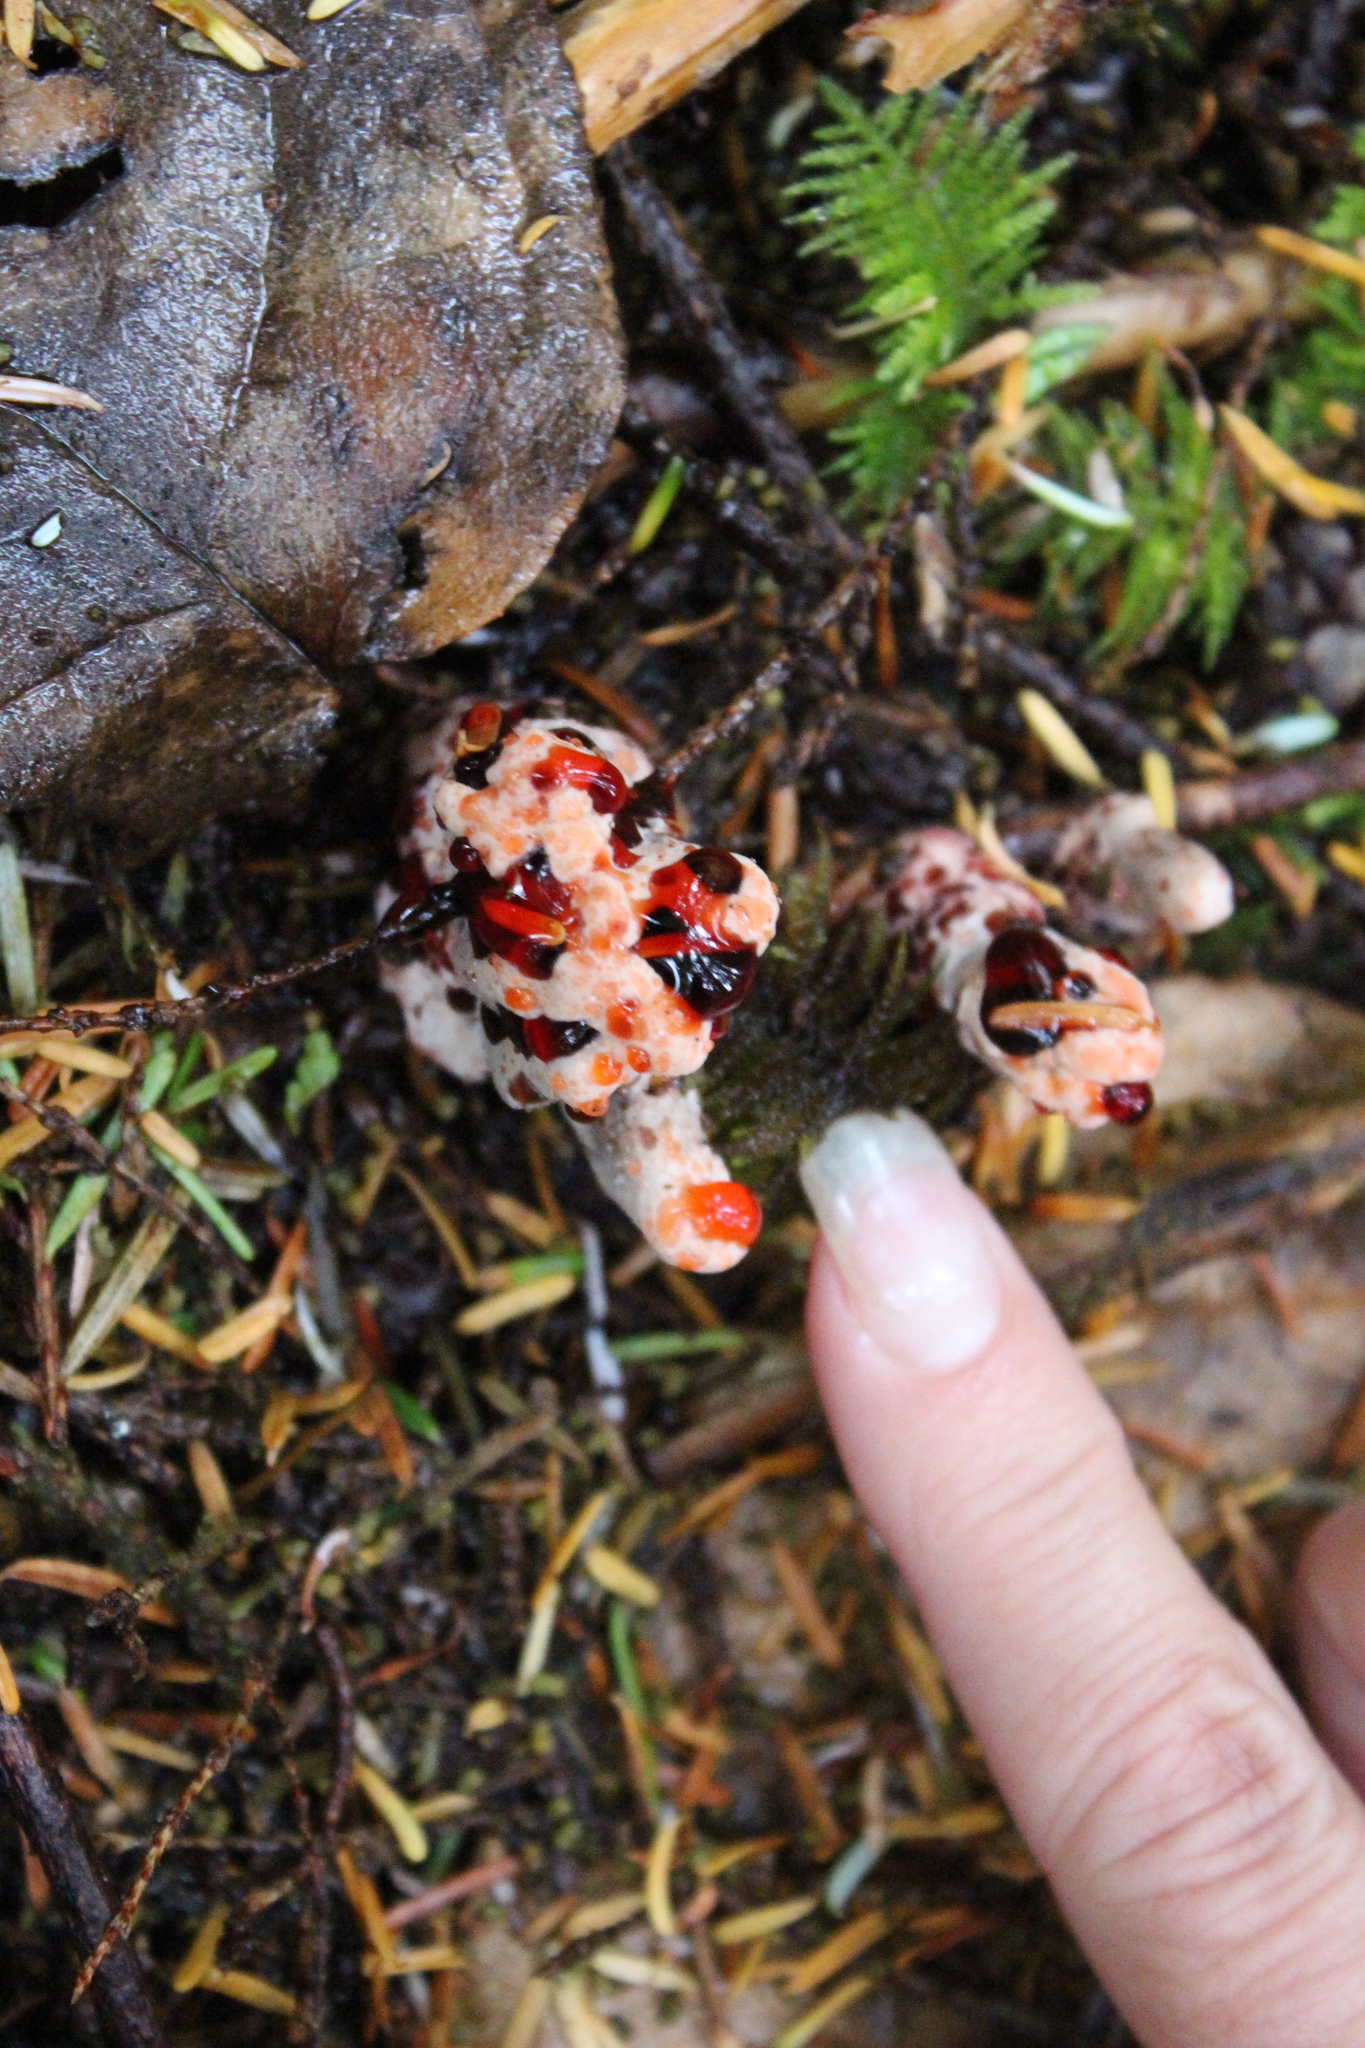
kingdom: Fungi
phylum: Basidiomycota
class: Agaricomycetes
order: Thelephorales
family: Bankeraceae
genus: Hydnellum
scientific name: Hydnellum peckii
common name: Devil's tooth
